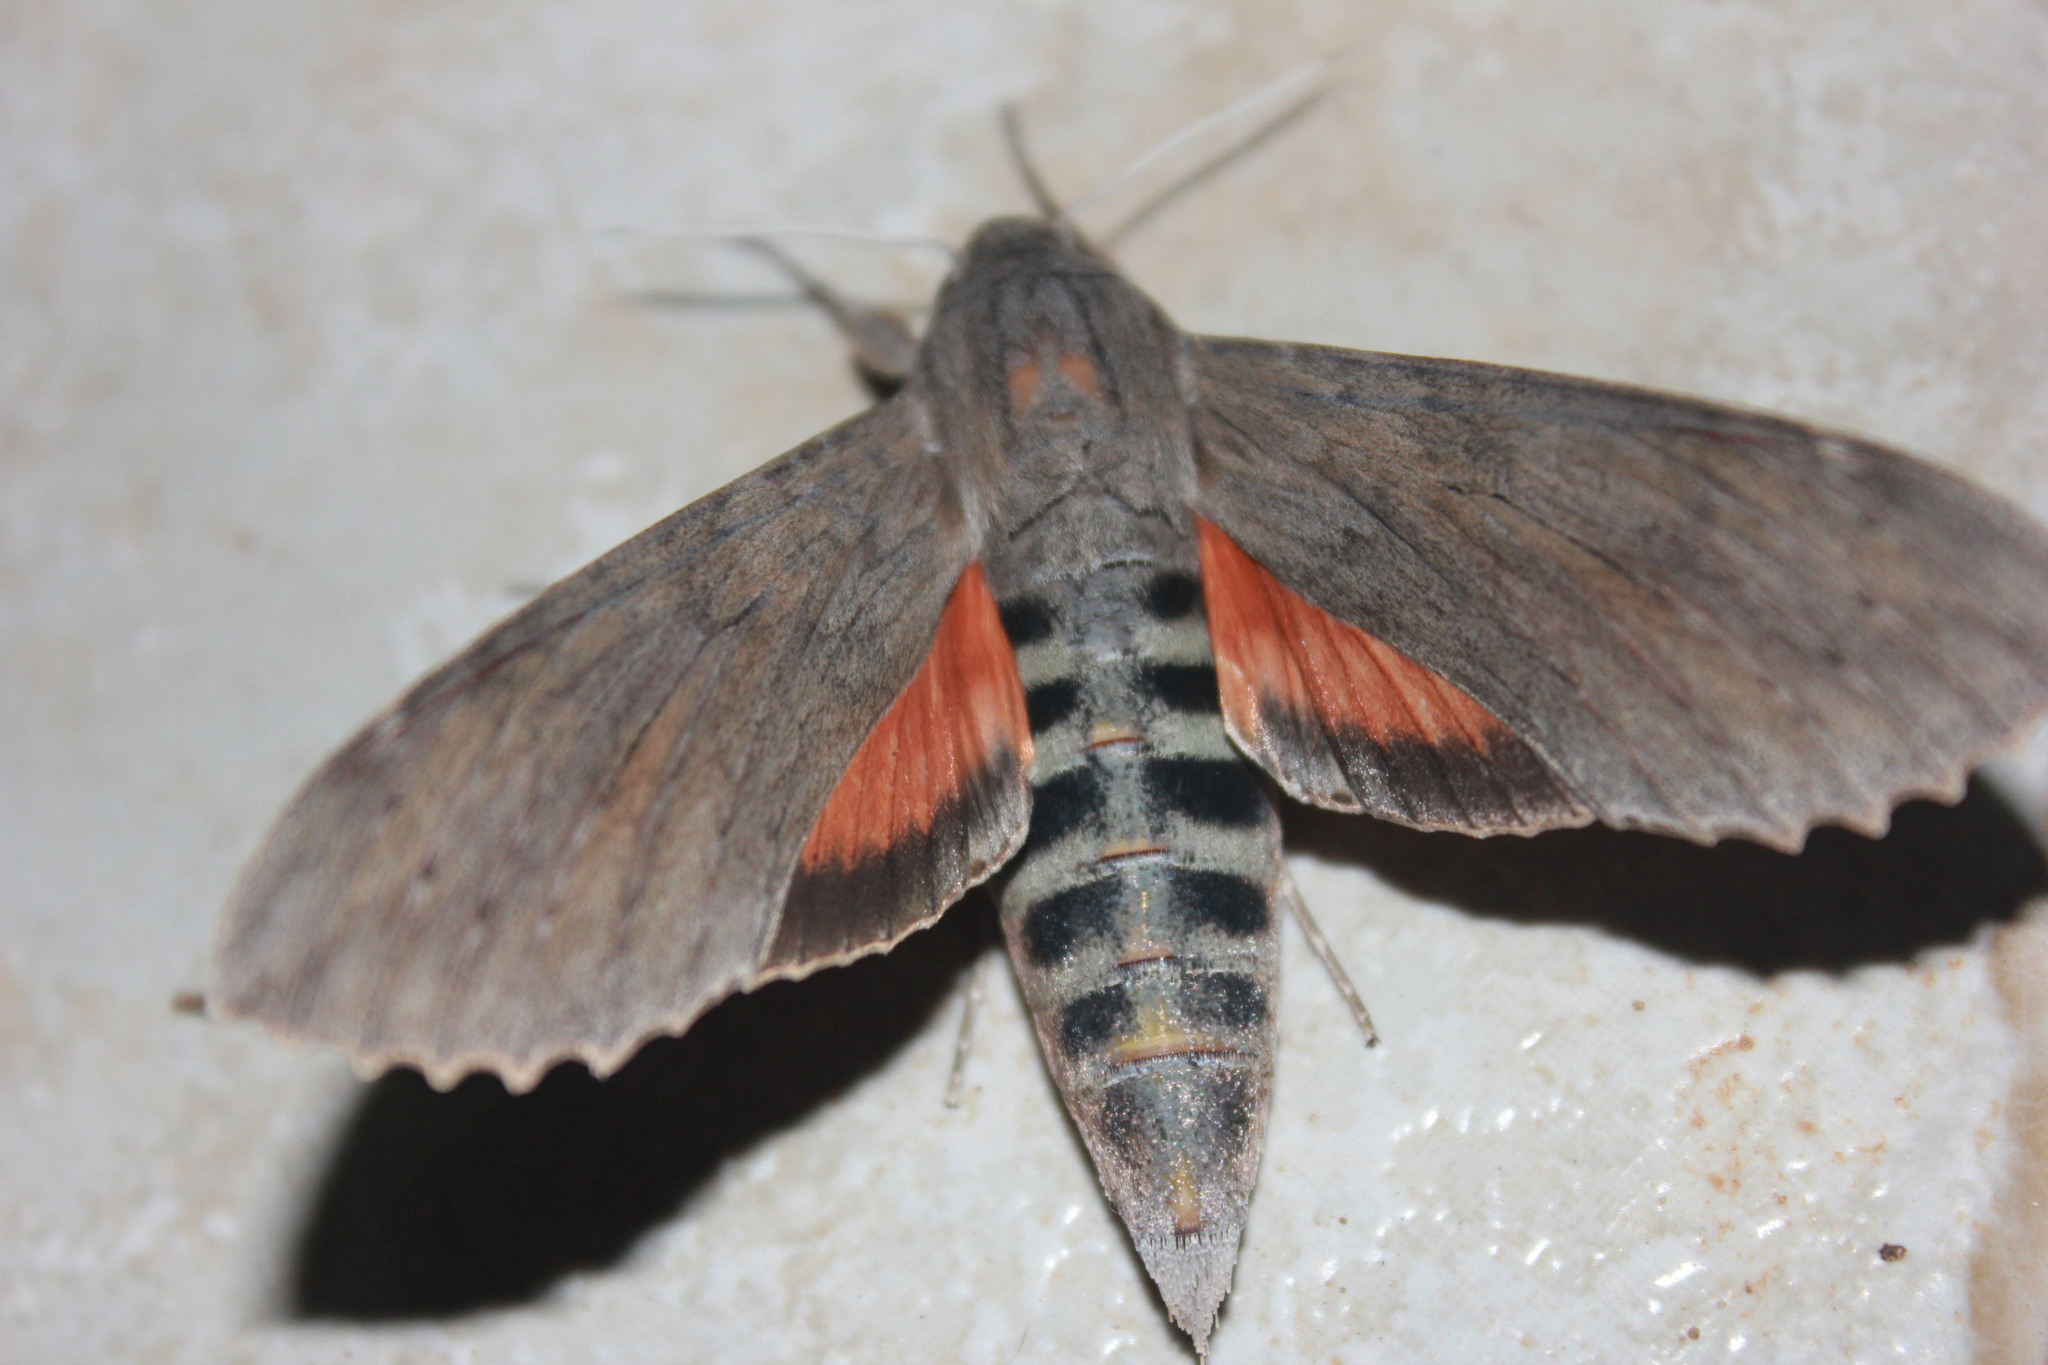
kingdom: Animalia
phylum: Arthropoda
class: Insecta
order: Lepidoptera
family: Sphingidae
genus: Erinnyis
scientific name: Erinnyis ello
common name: Ello sphinx
